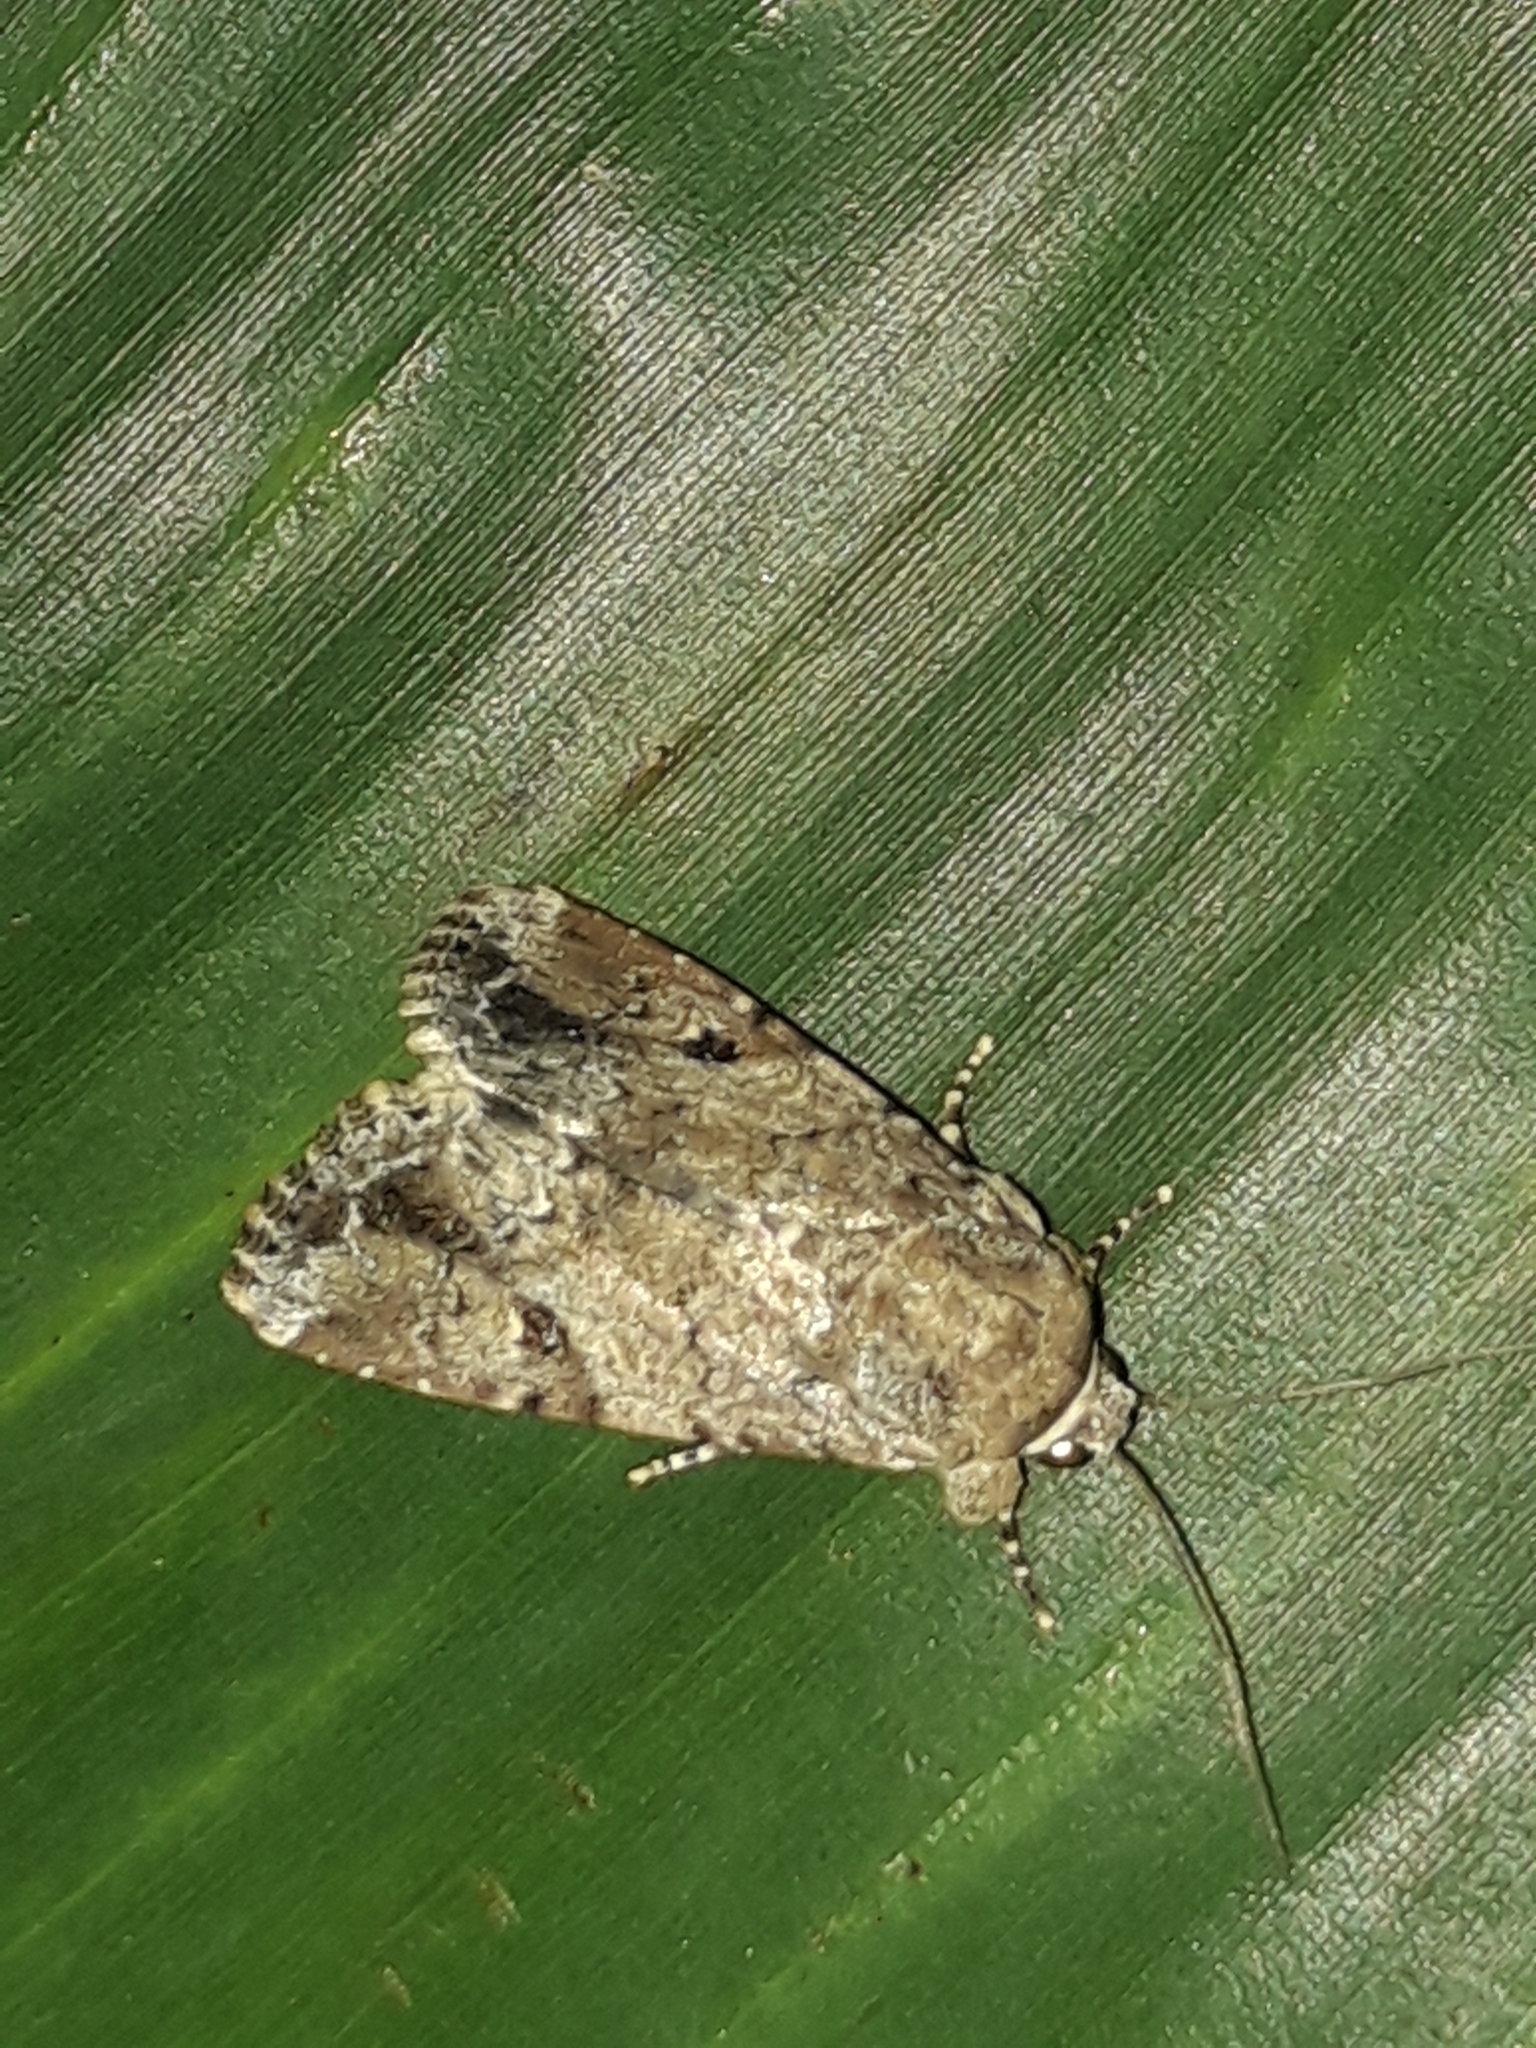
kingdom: Animalia
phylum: Arthropoda
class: Insecta
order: Lepidoptera
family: Noctuidae
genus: Spodoptera
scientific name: Spodoptera mauritia
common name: Lawn armyworm
